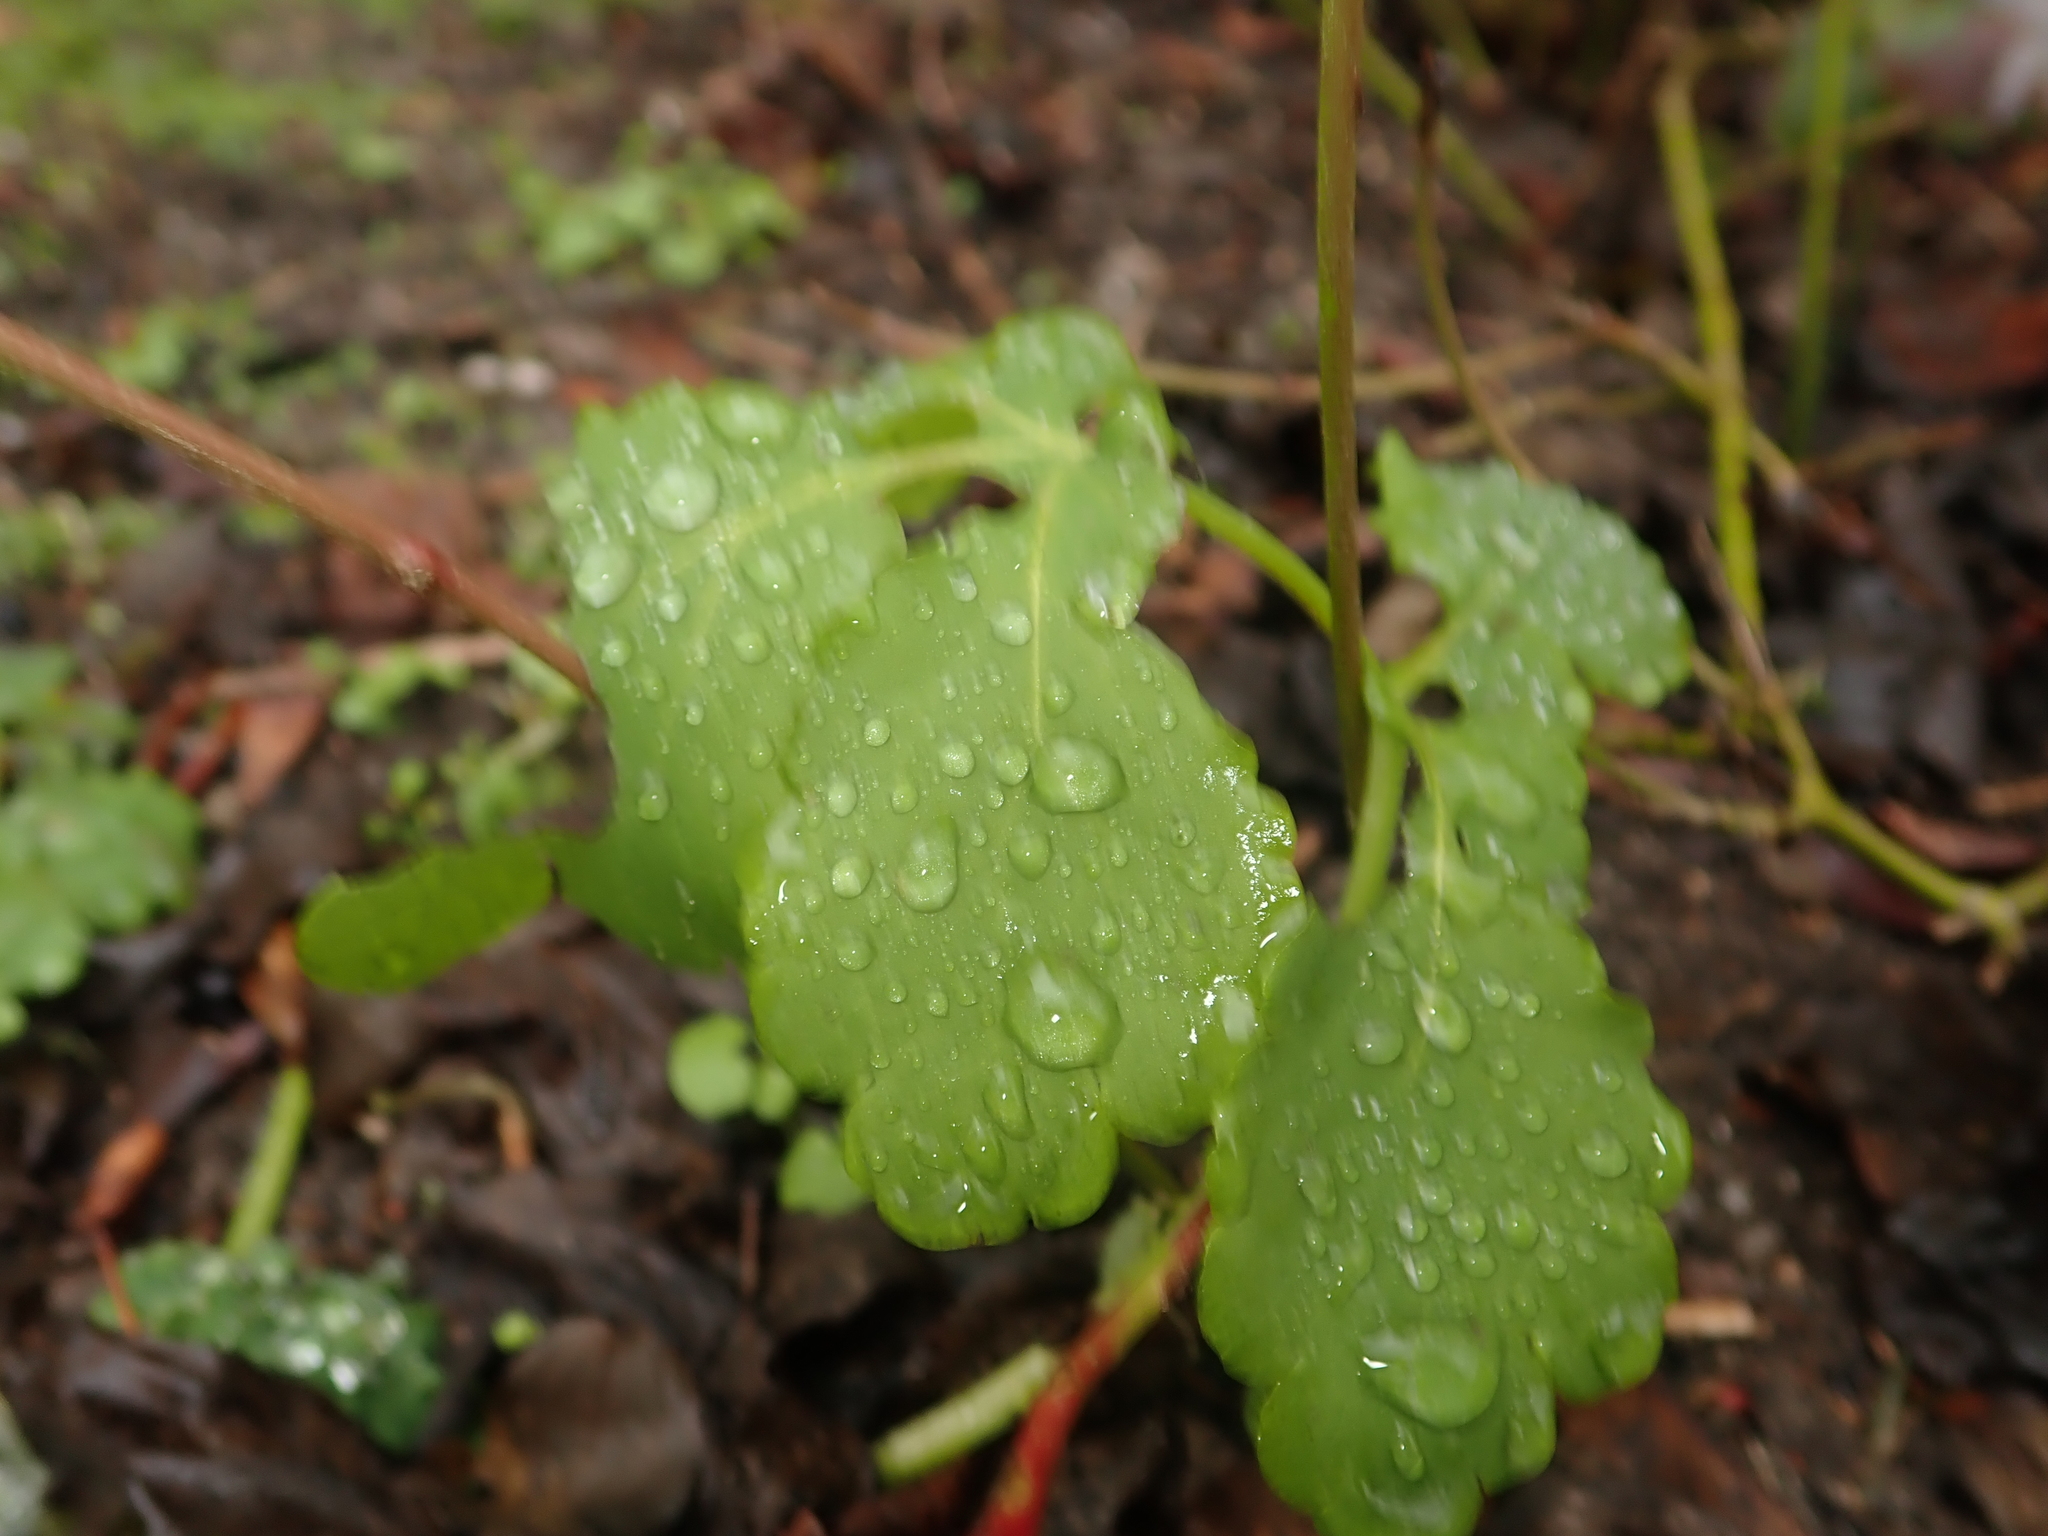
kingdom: Plantae
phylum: Tracheophyta
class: Magnoliopsida
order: Ranunculales
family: Papaveraceae
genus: Chelidonium
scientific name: Chelidonium majus
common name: Greater celandine
